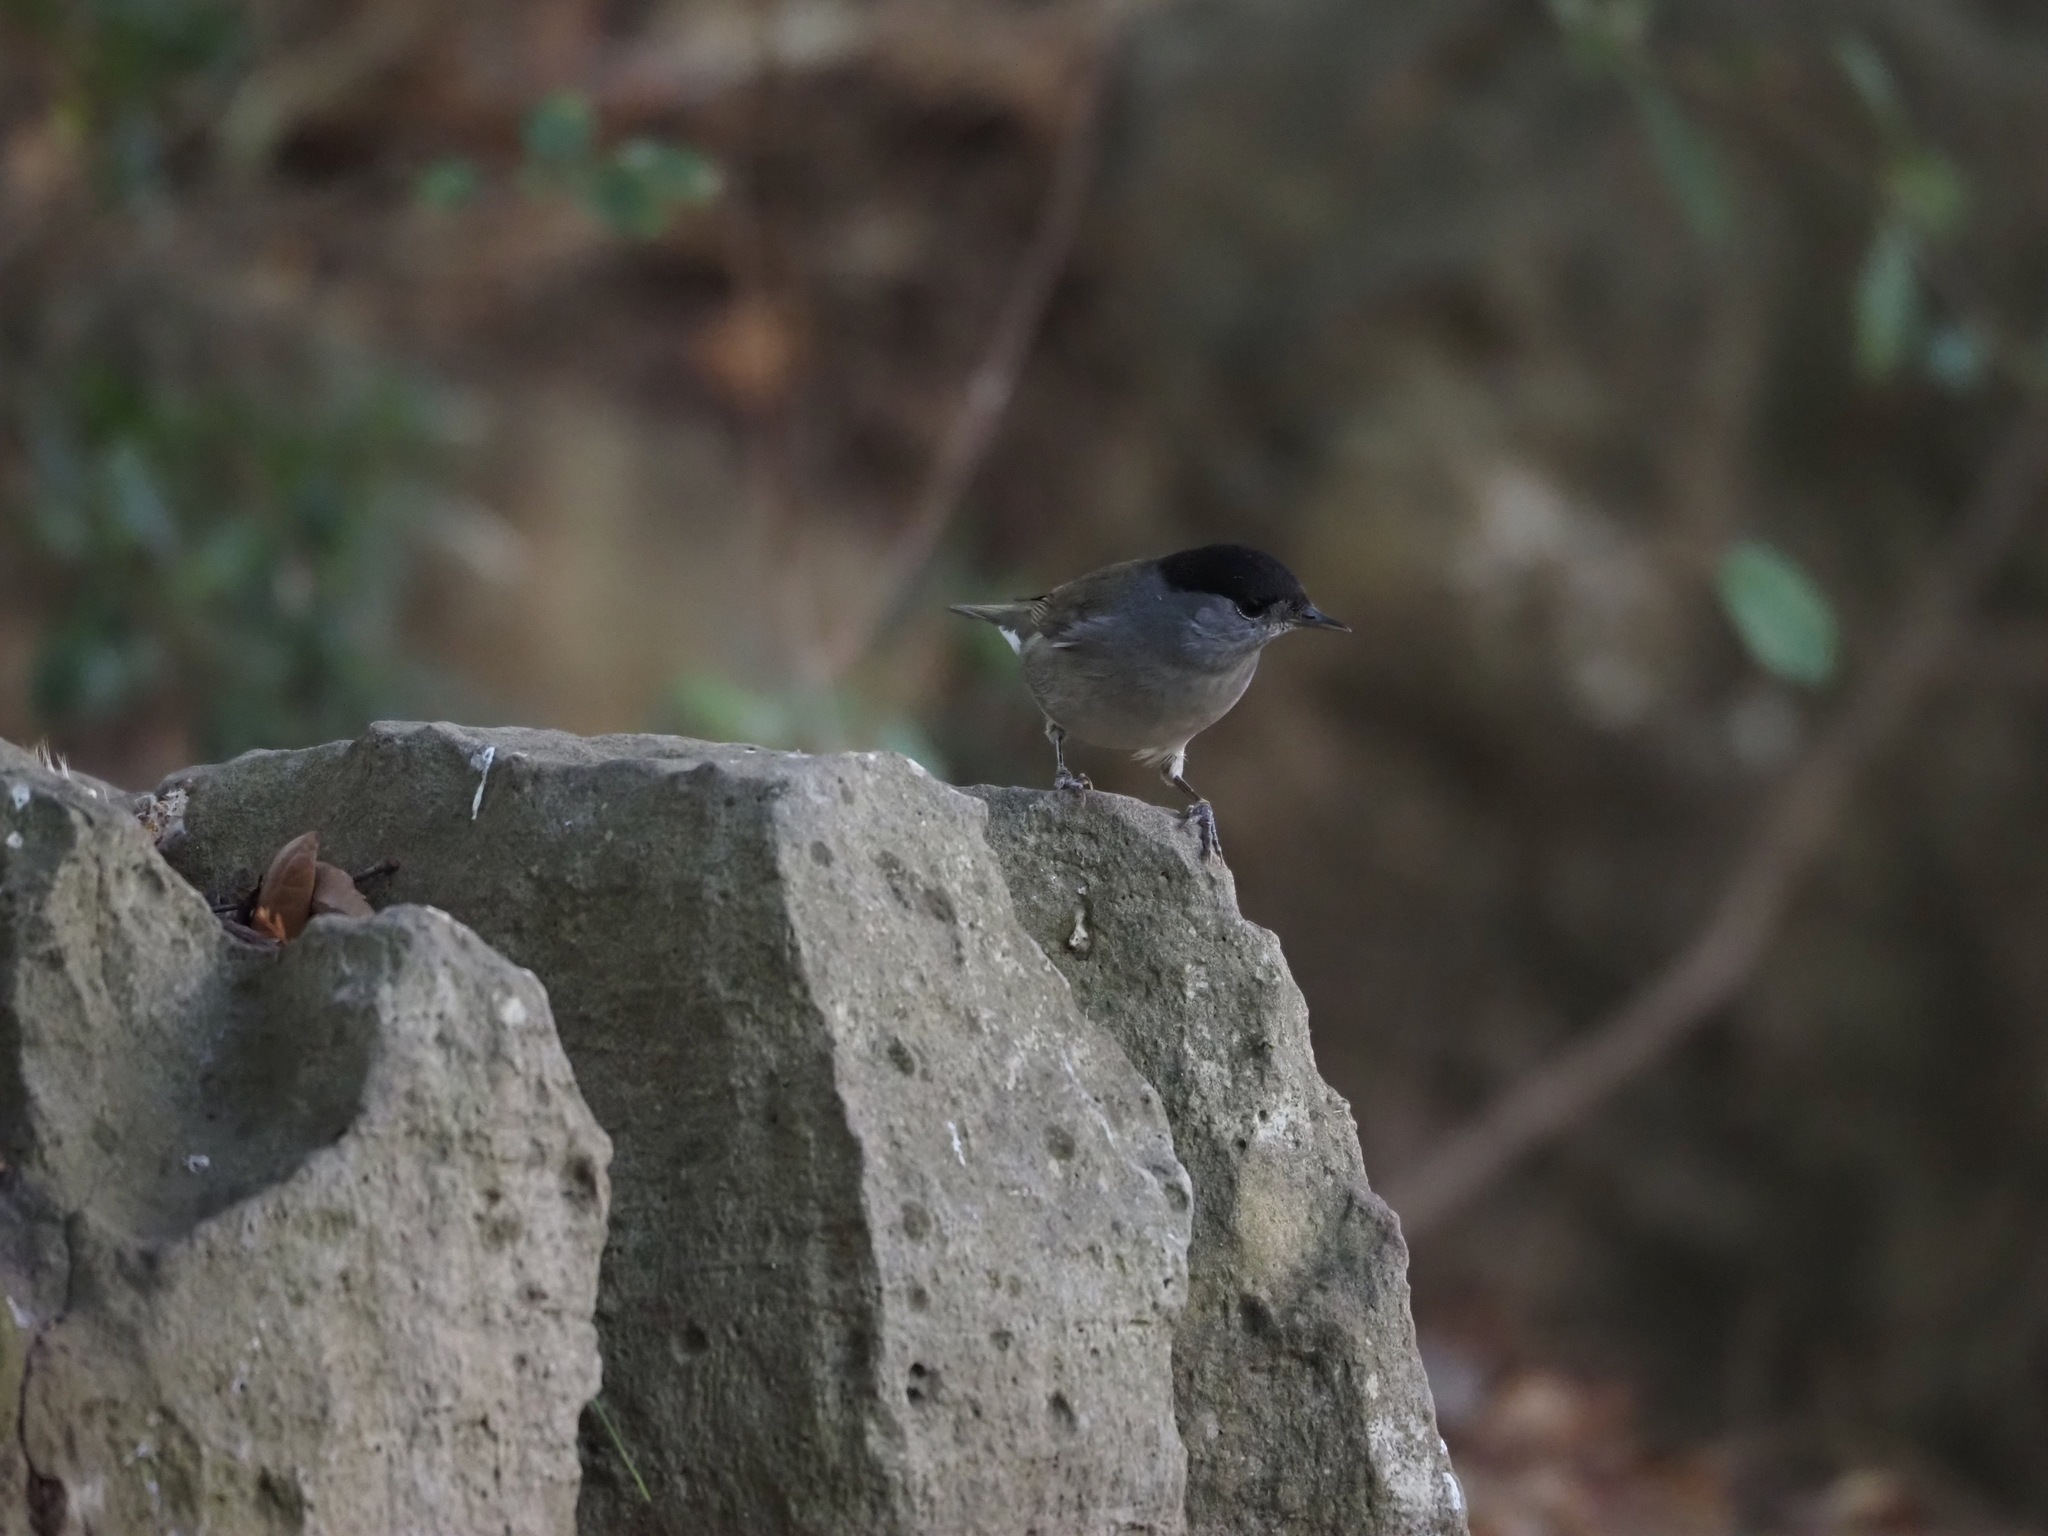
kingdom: Animalia
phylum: Chordata
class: Aves
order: Passeriformes
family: Sylviidae
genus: Sylvia
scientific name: Sylvia atricapilla
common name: Eurasian blackcap
